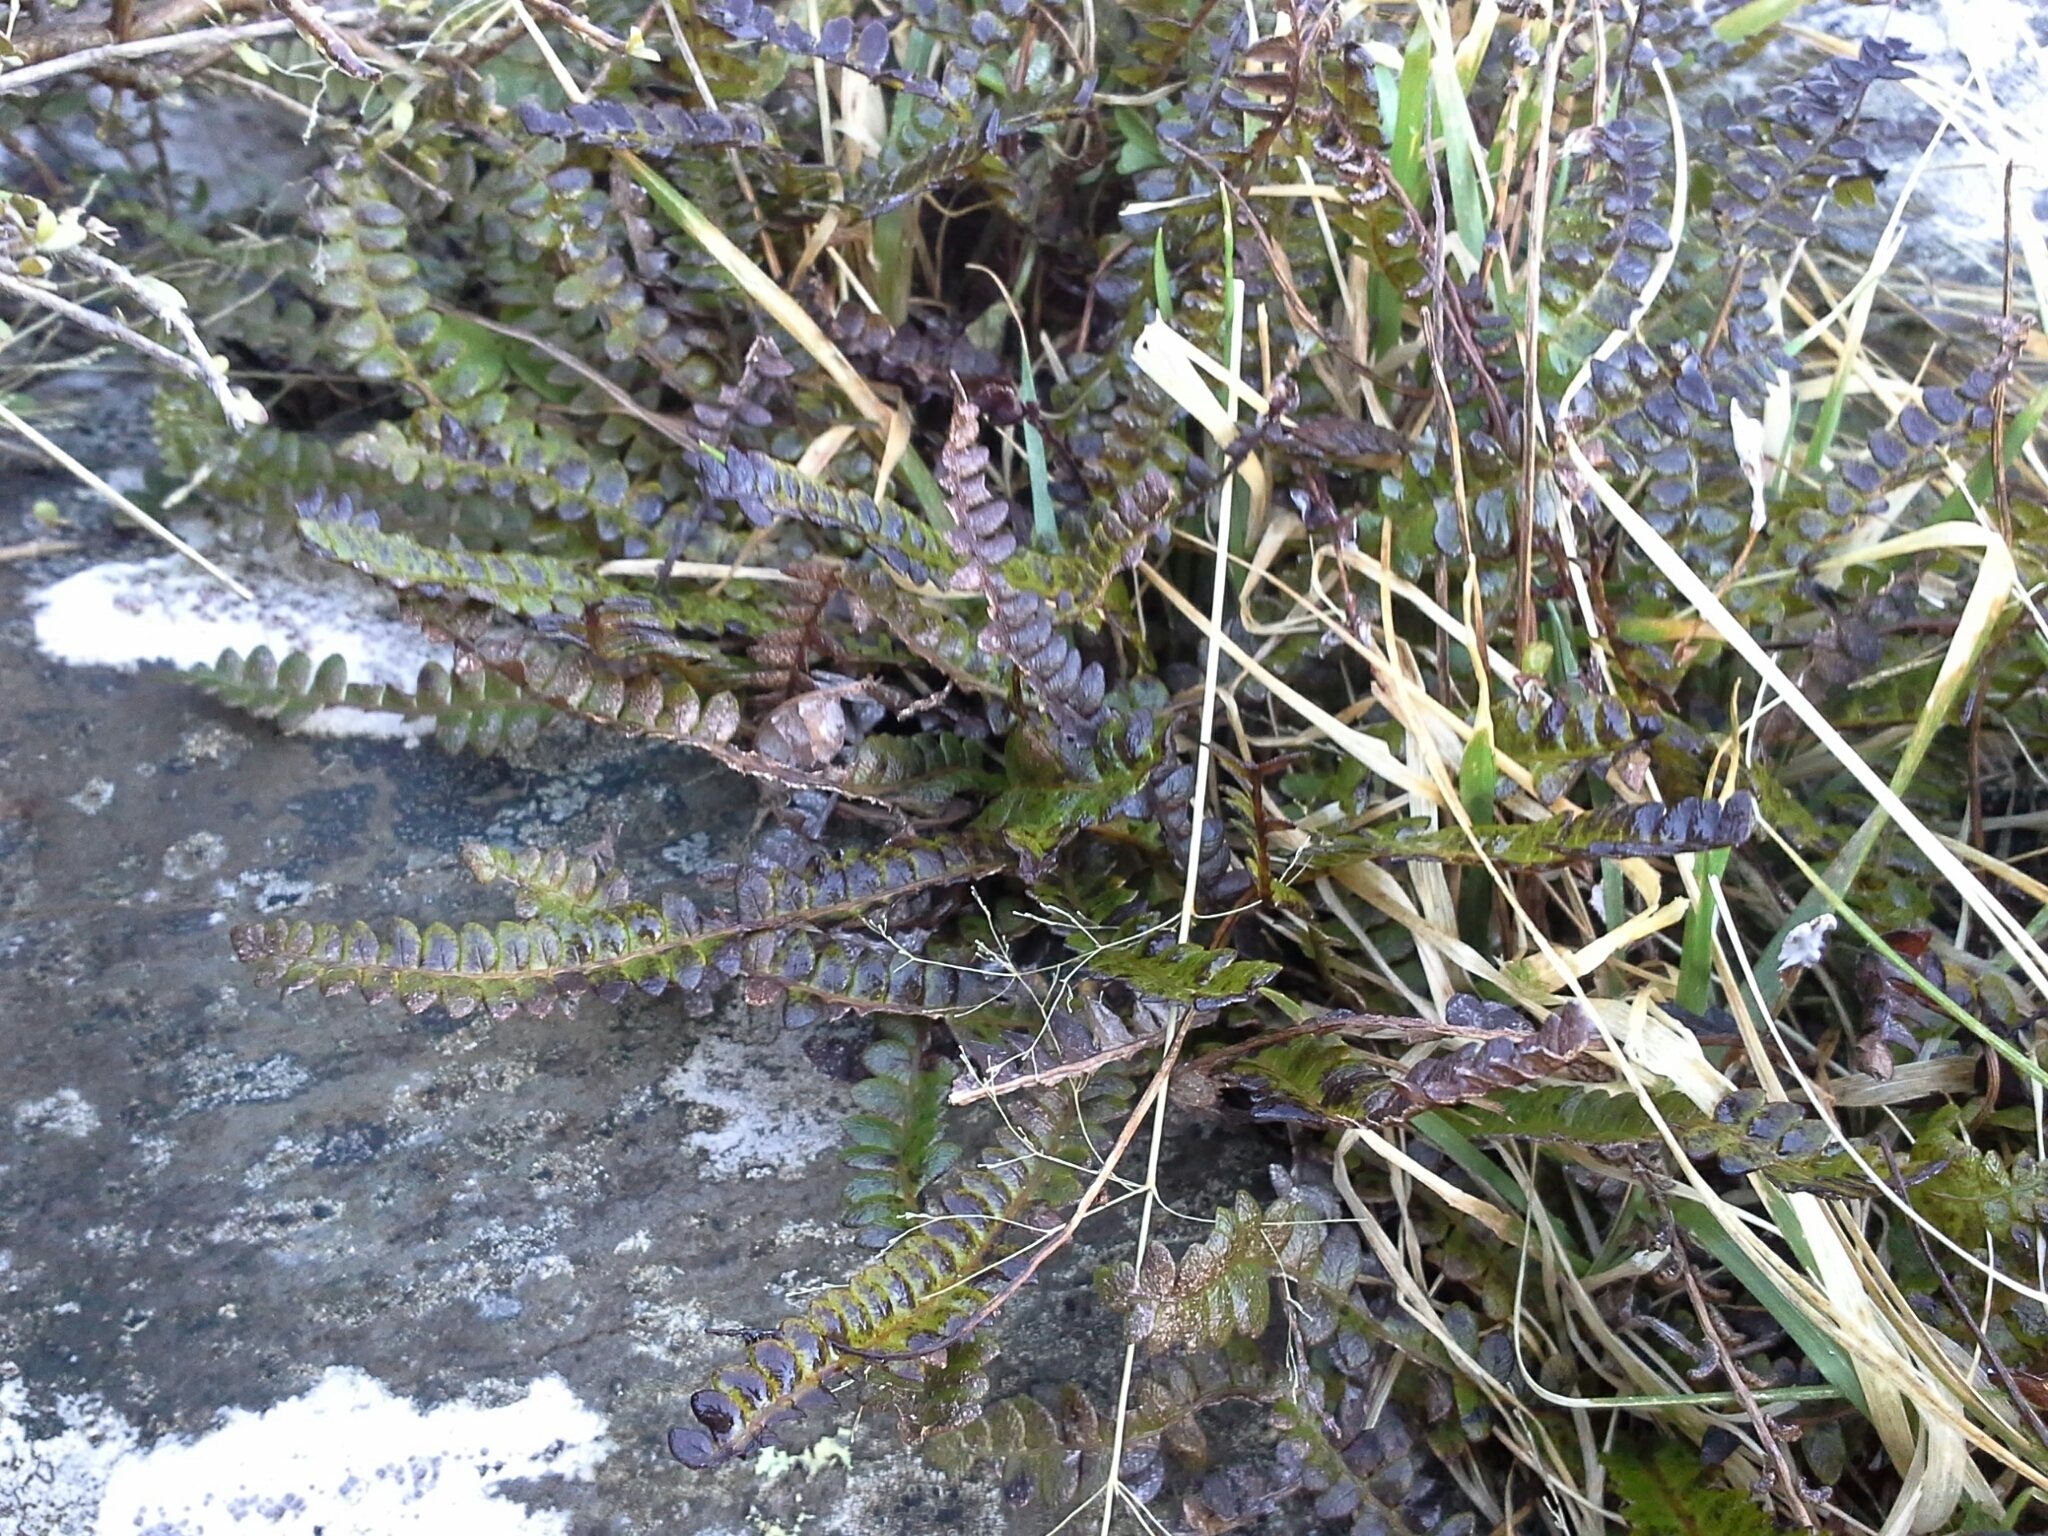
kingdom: Plantae
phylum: Tracheophyta
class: Polypodiopsida
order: Polypodiales
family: Blechnaceae
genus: Austroblechnum
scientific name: Austroblechnum penna-marina
